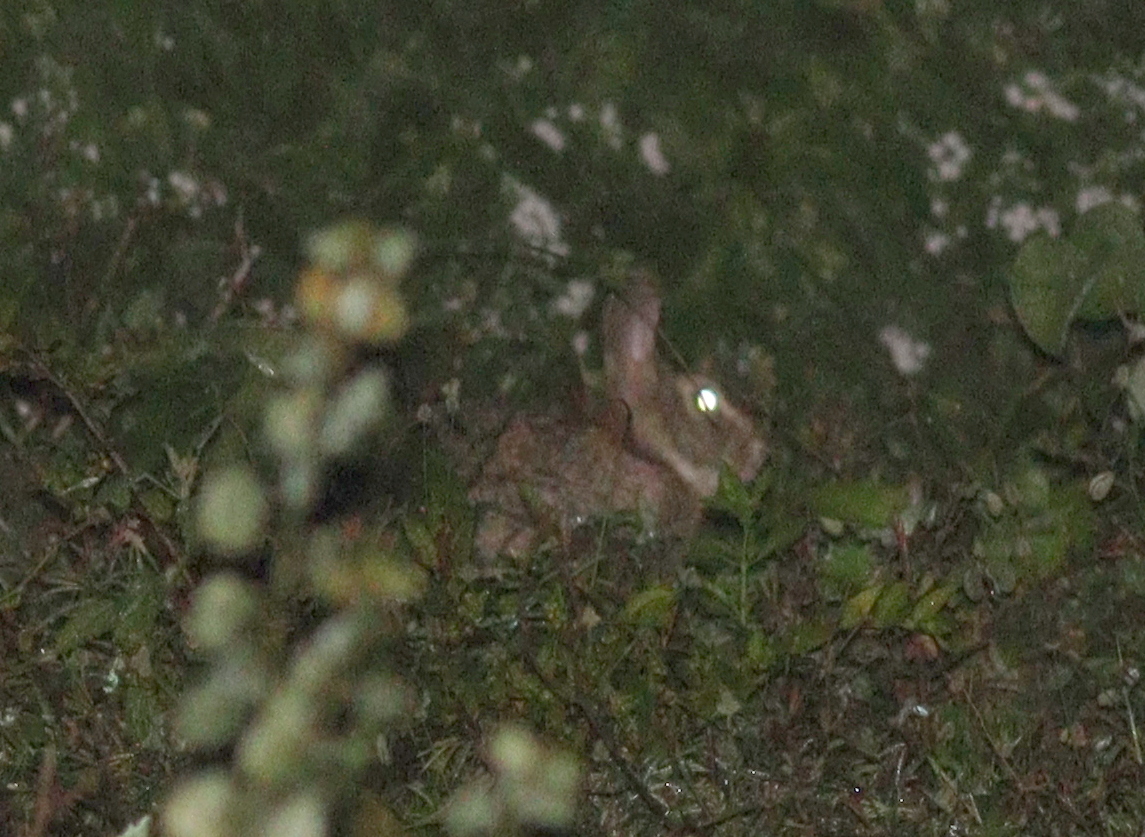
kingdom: Animalia
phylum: Chordata
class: Mammalia
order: Lagomorpha
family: Leporidae
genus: Sylvilagus
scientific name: Sylvilagus brasiliensis
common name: Tapeti
